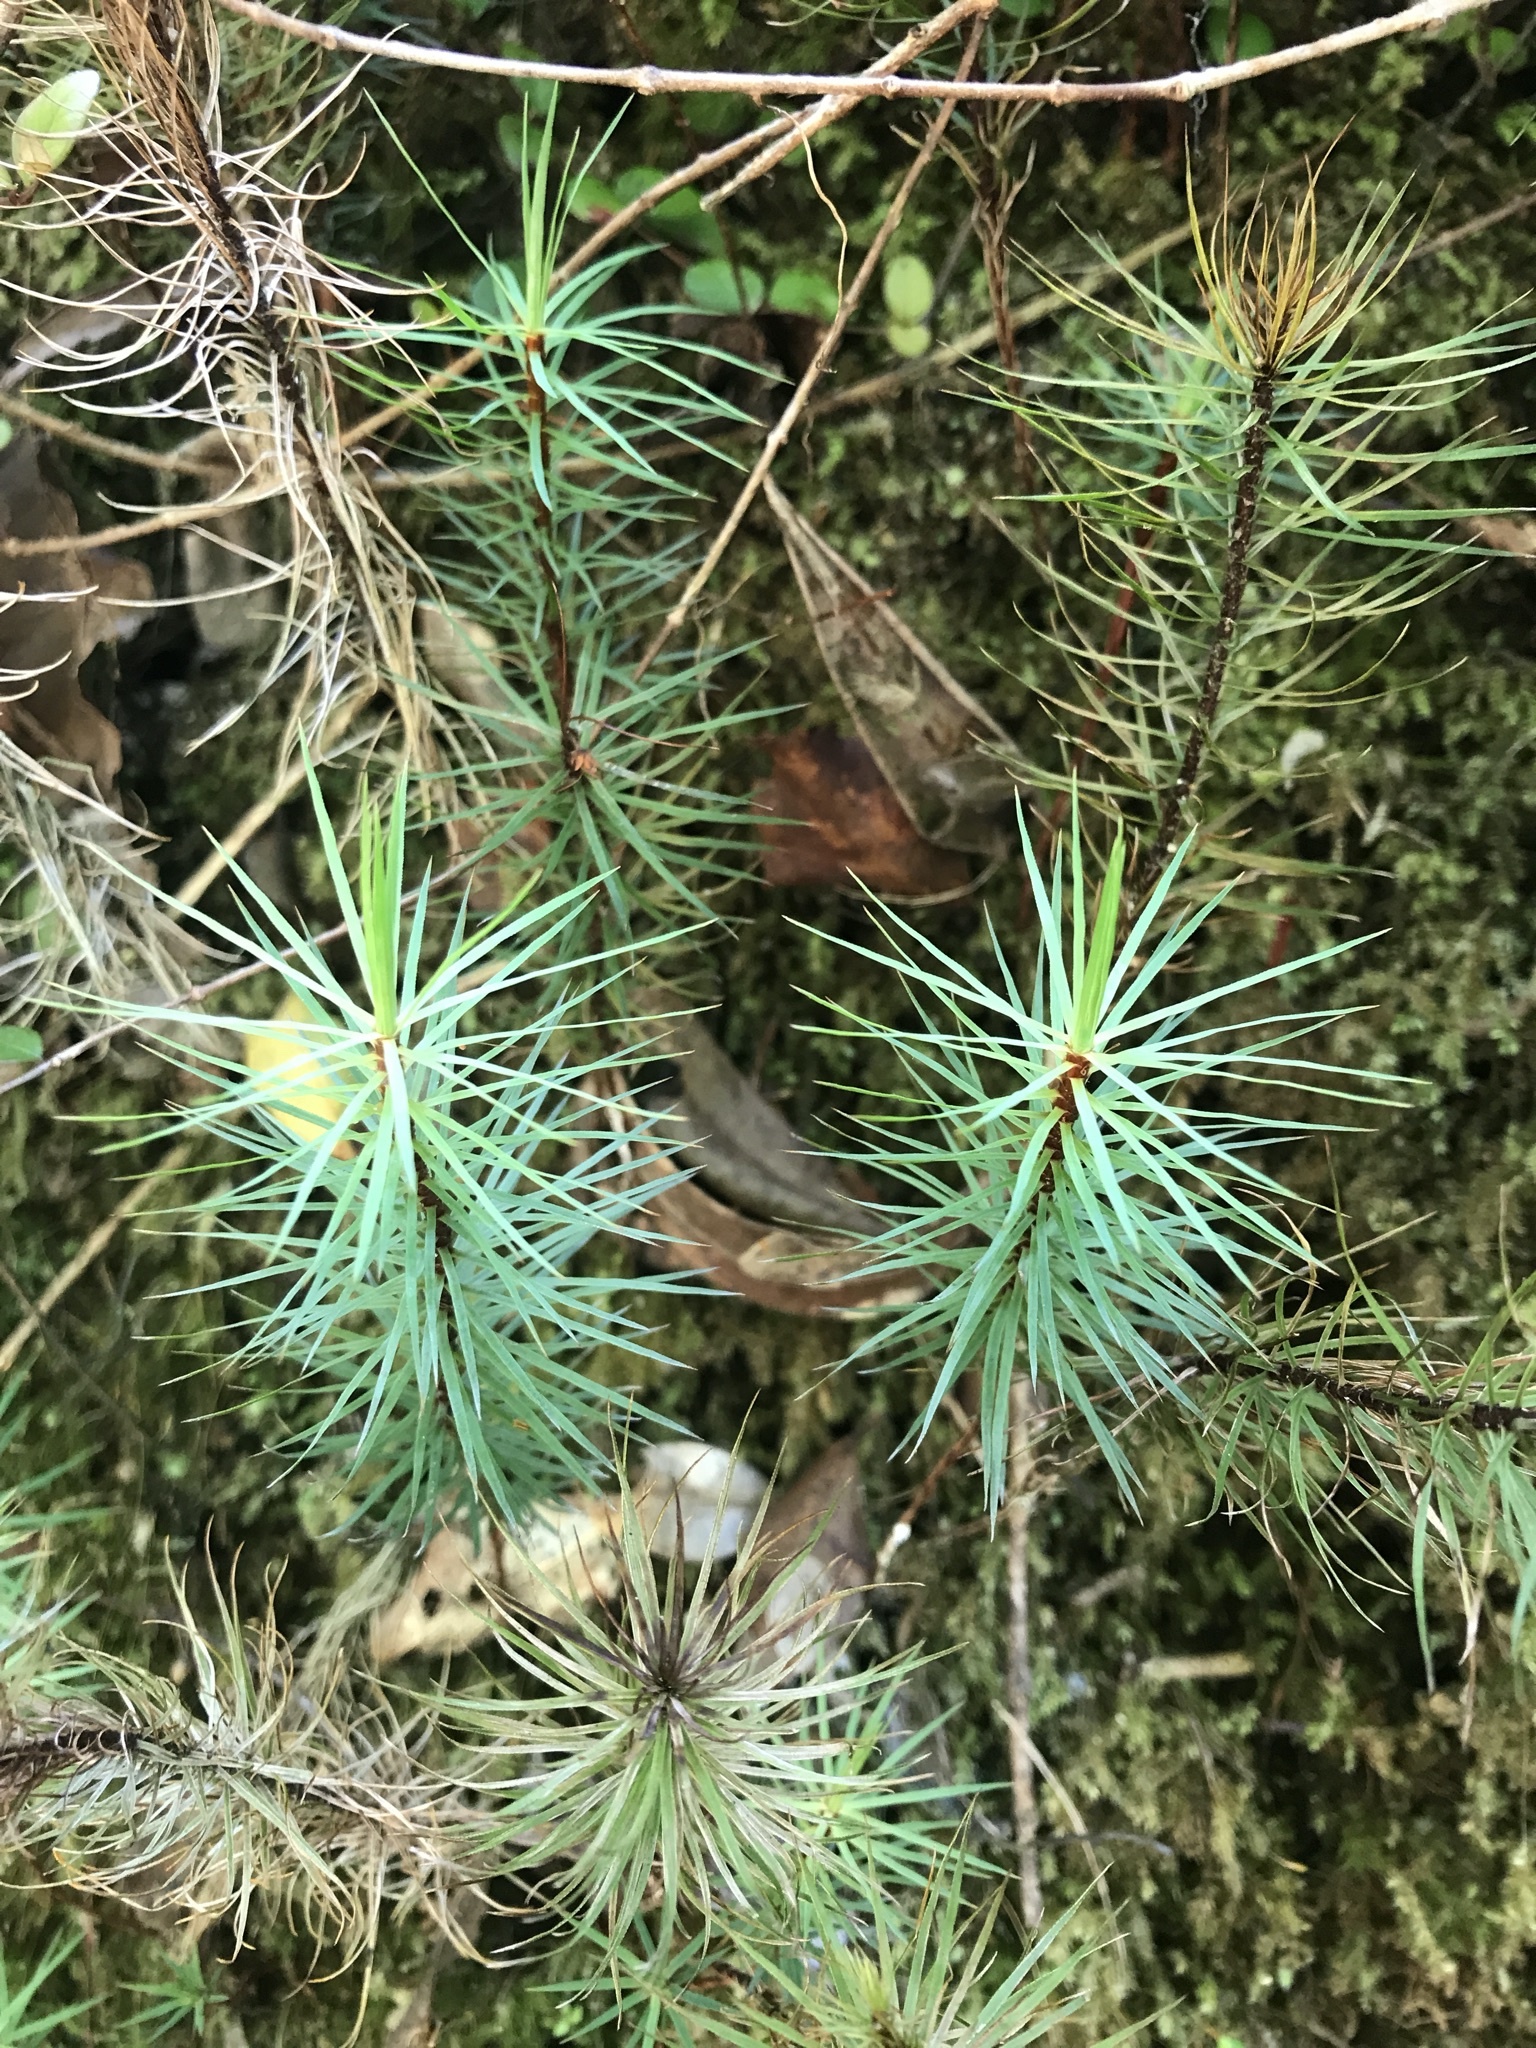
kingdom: Plantae
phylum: Bryophyta
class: Polytrichopsida
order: Polytrichales
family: Polytrichaceae
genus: Dawsonia
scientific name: Dawsonia superba
